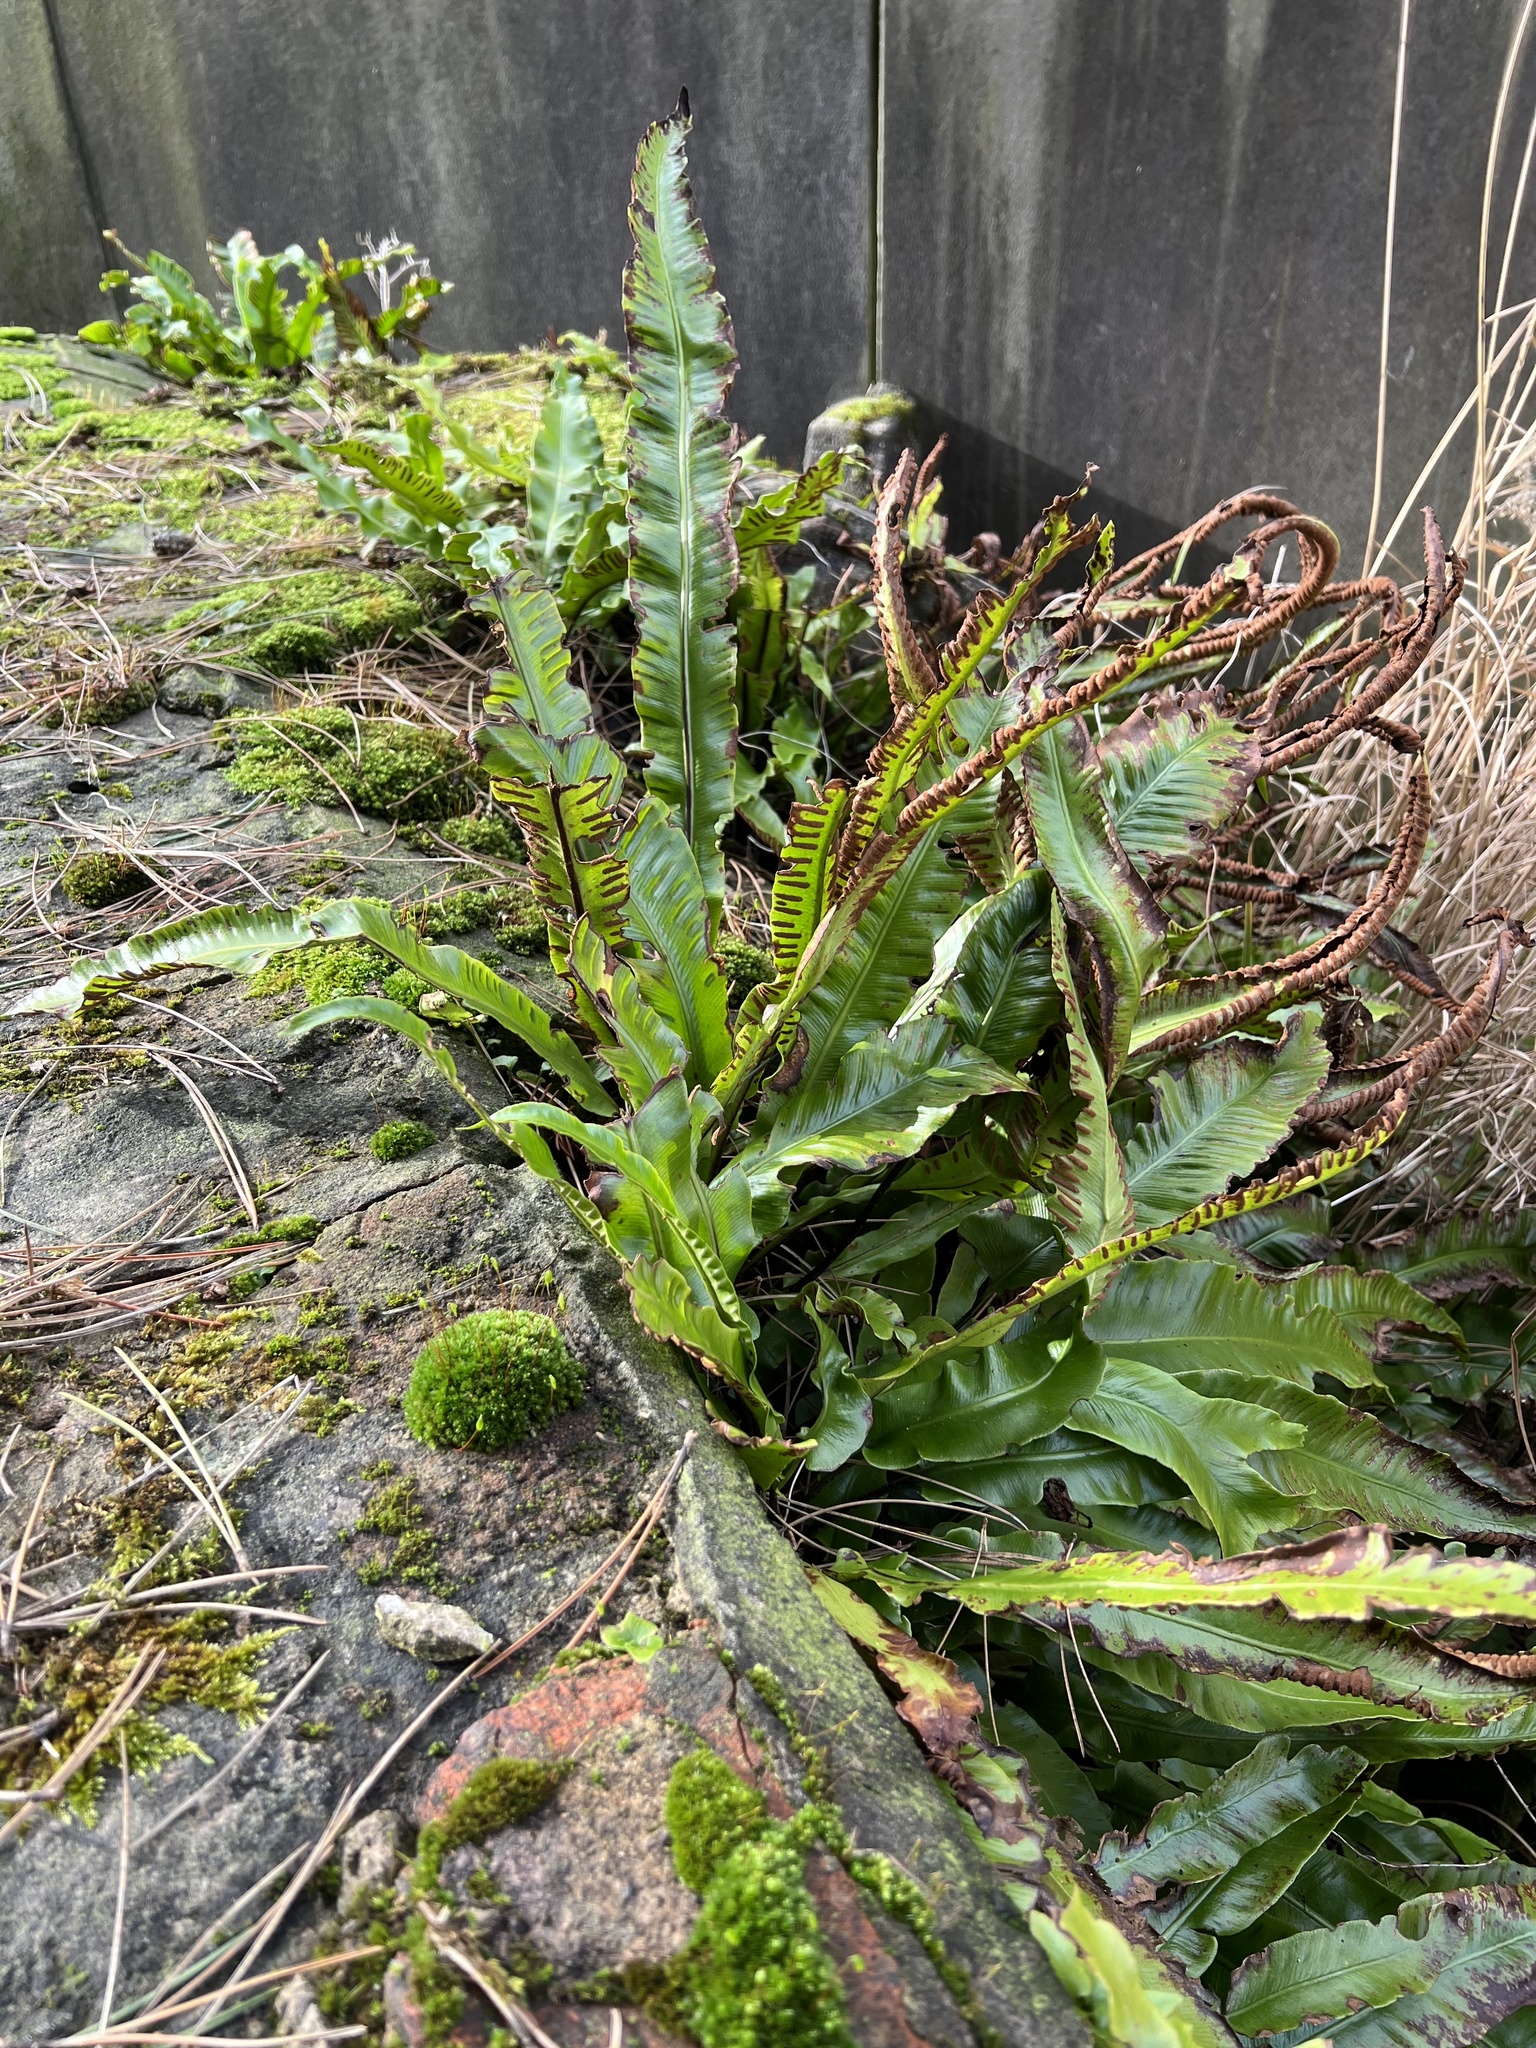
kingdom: Plantae
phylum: Tracheophyta
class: Polypodiopsida
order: Polypodiales
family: Aspleniaceae
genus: Asplenium
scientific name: Asplenium scolopendrium
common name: Hart's-tongue fern
